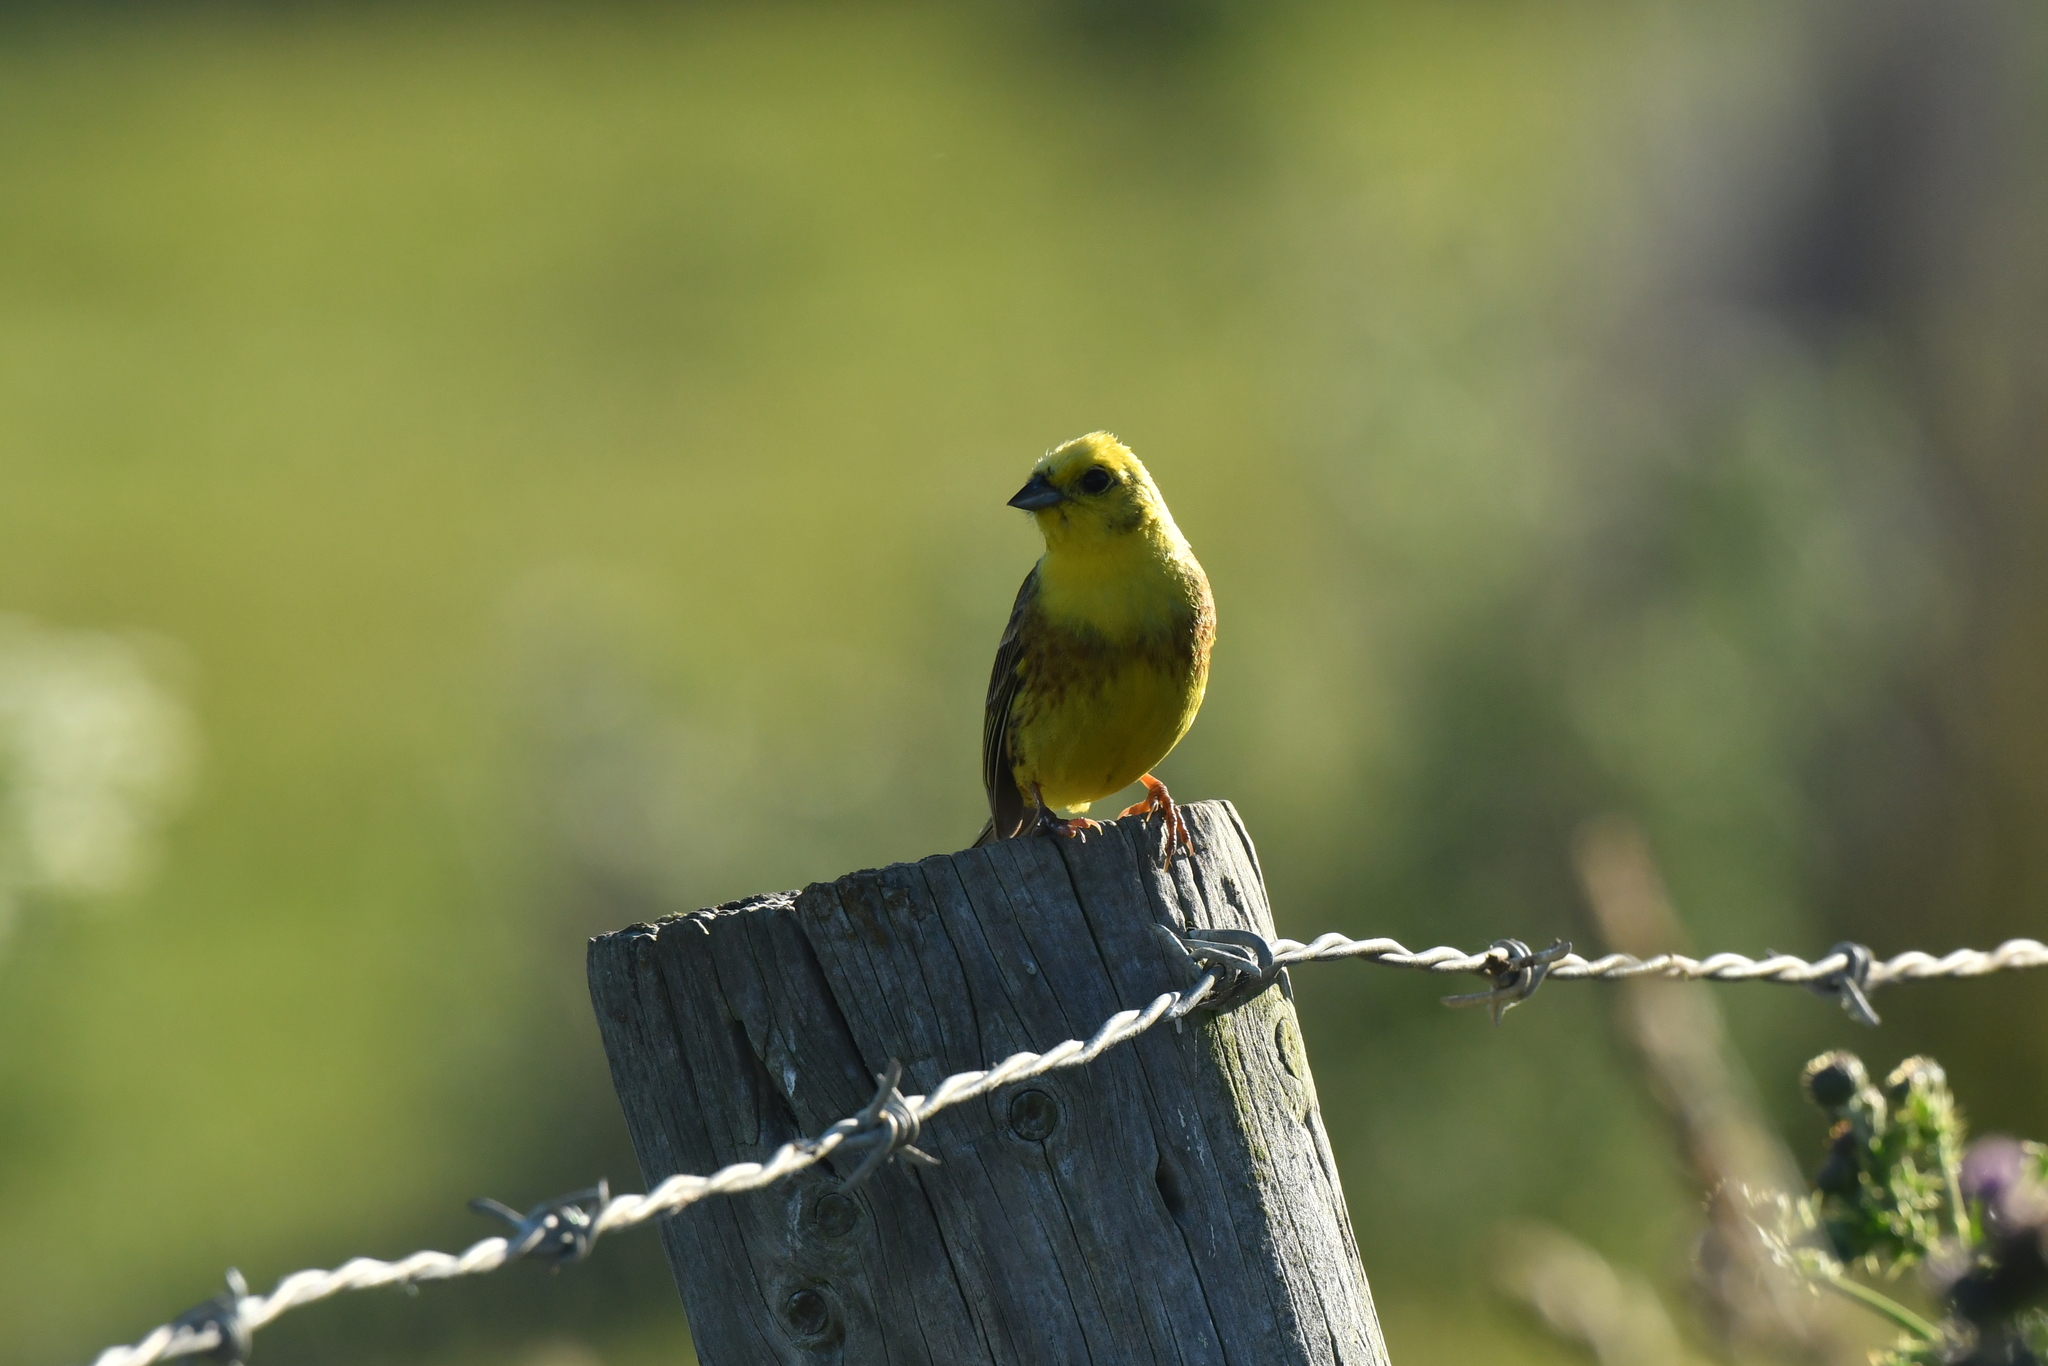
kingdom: Animalia
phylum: Chordata
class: Aves
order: Passeriformes
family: Emberizidae
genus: Emberiza
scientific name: Emberiza citrinella
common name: Yellowhammer
